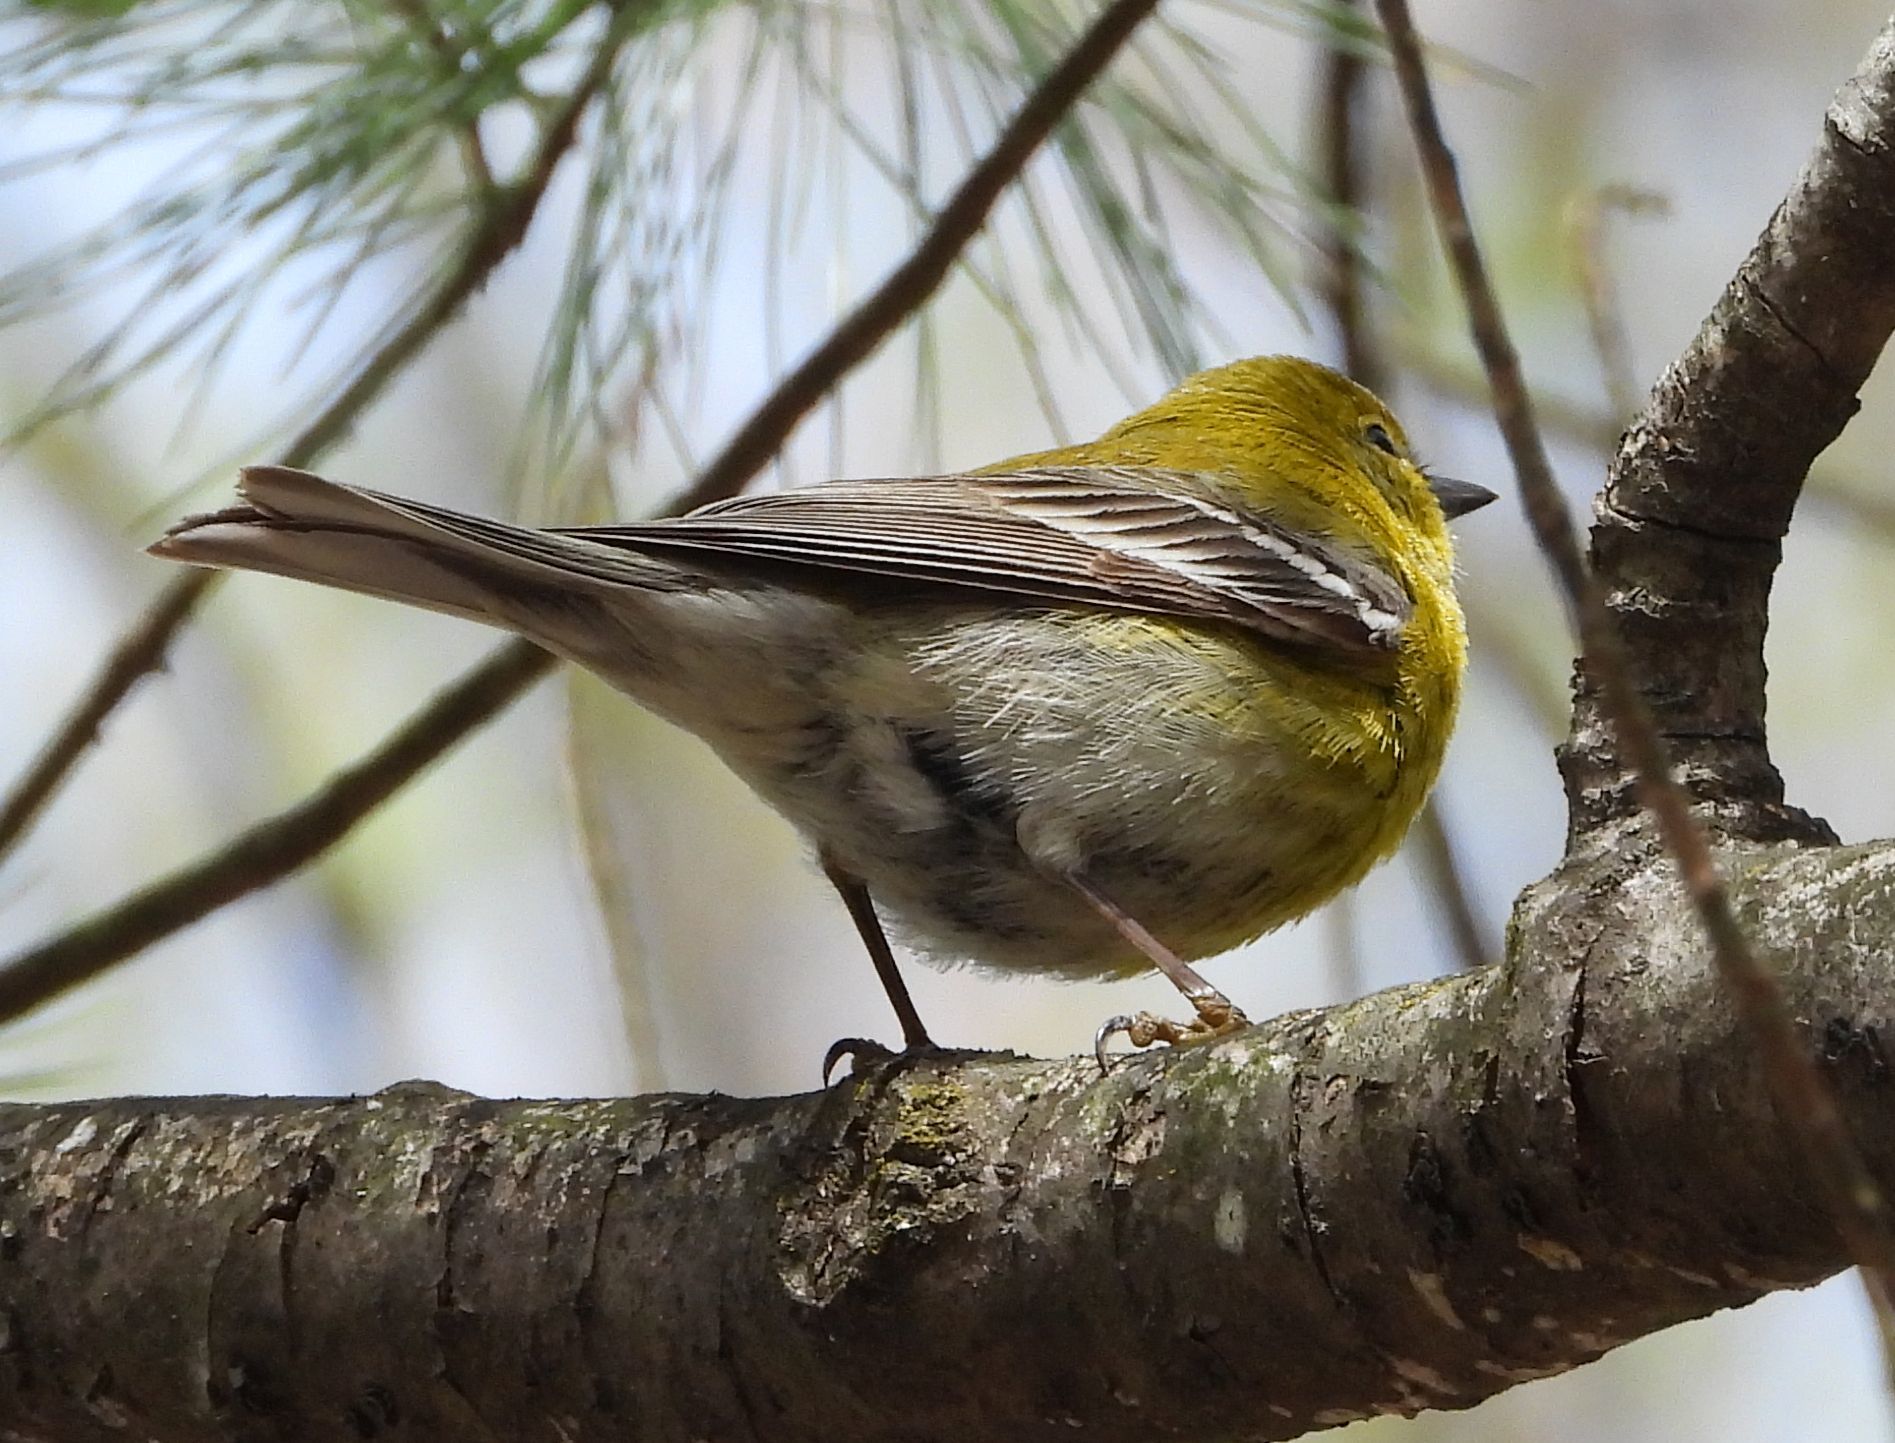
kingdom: Animalia
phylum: Chordata
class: Aves
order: Passeriformes
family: Parulidae
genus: Setophaga
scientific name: Setophaga pinus
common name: Pine warbler
